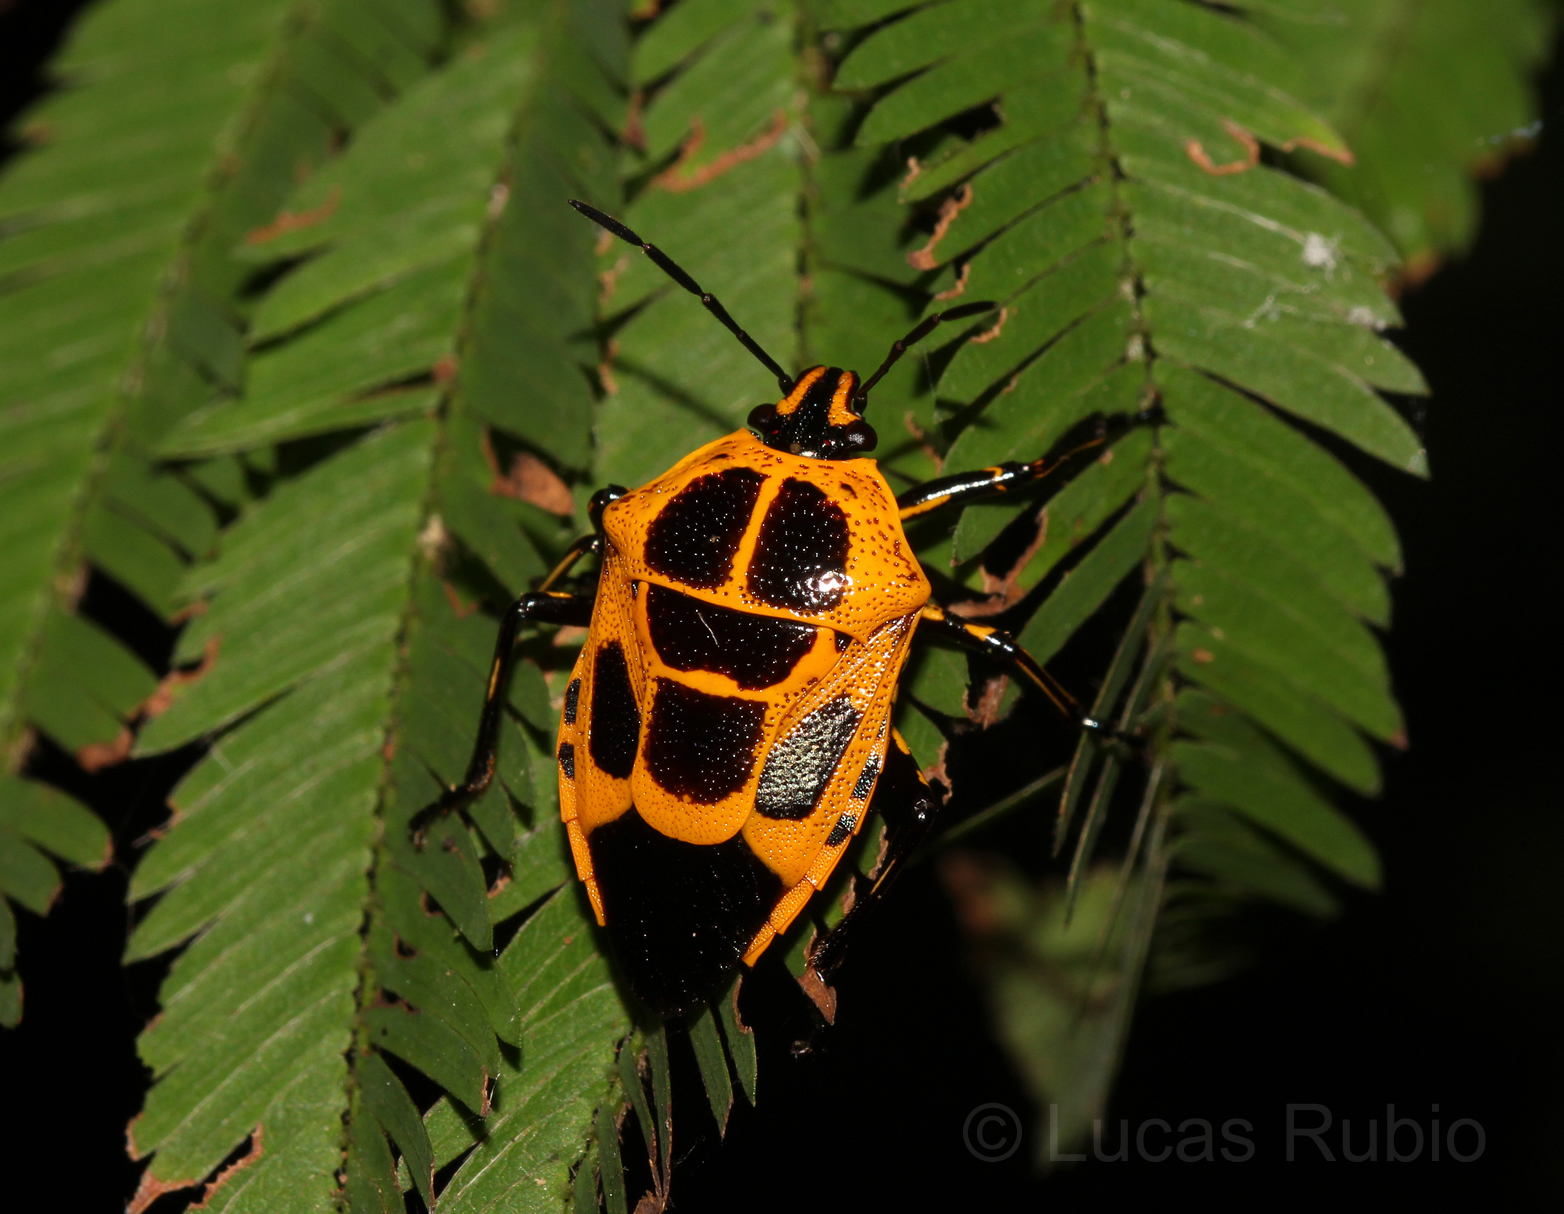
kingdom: Animalia
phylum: Arthropoda
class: Insecta
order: Hemiptera
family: Pentatomidae
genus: Oplomus
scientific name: Oplomus catena
